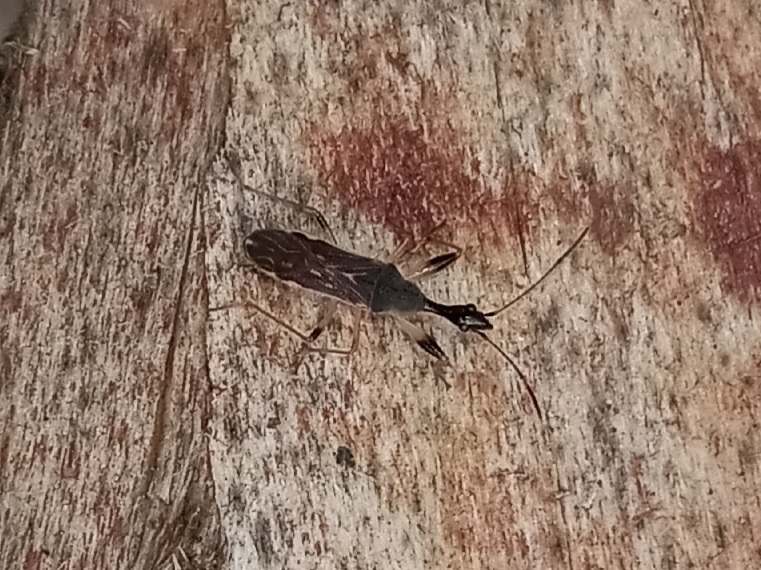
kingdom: Animalia
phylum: Arthropoda
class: Insecta
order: Hemiptera
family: Rhyparochromidae
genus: Myodocha
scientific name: Myodocha serripes
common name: Long-necked seed bug
